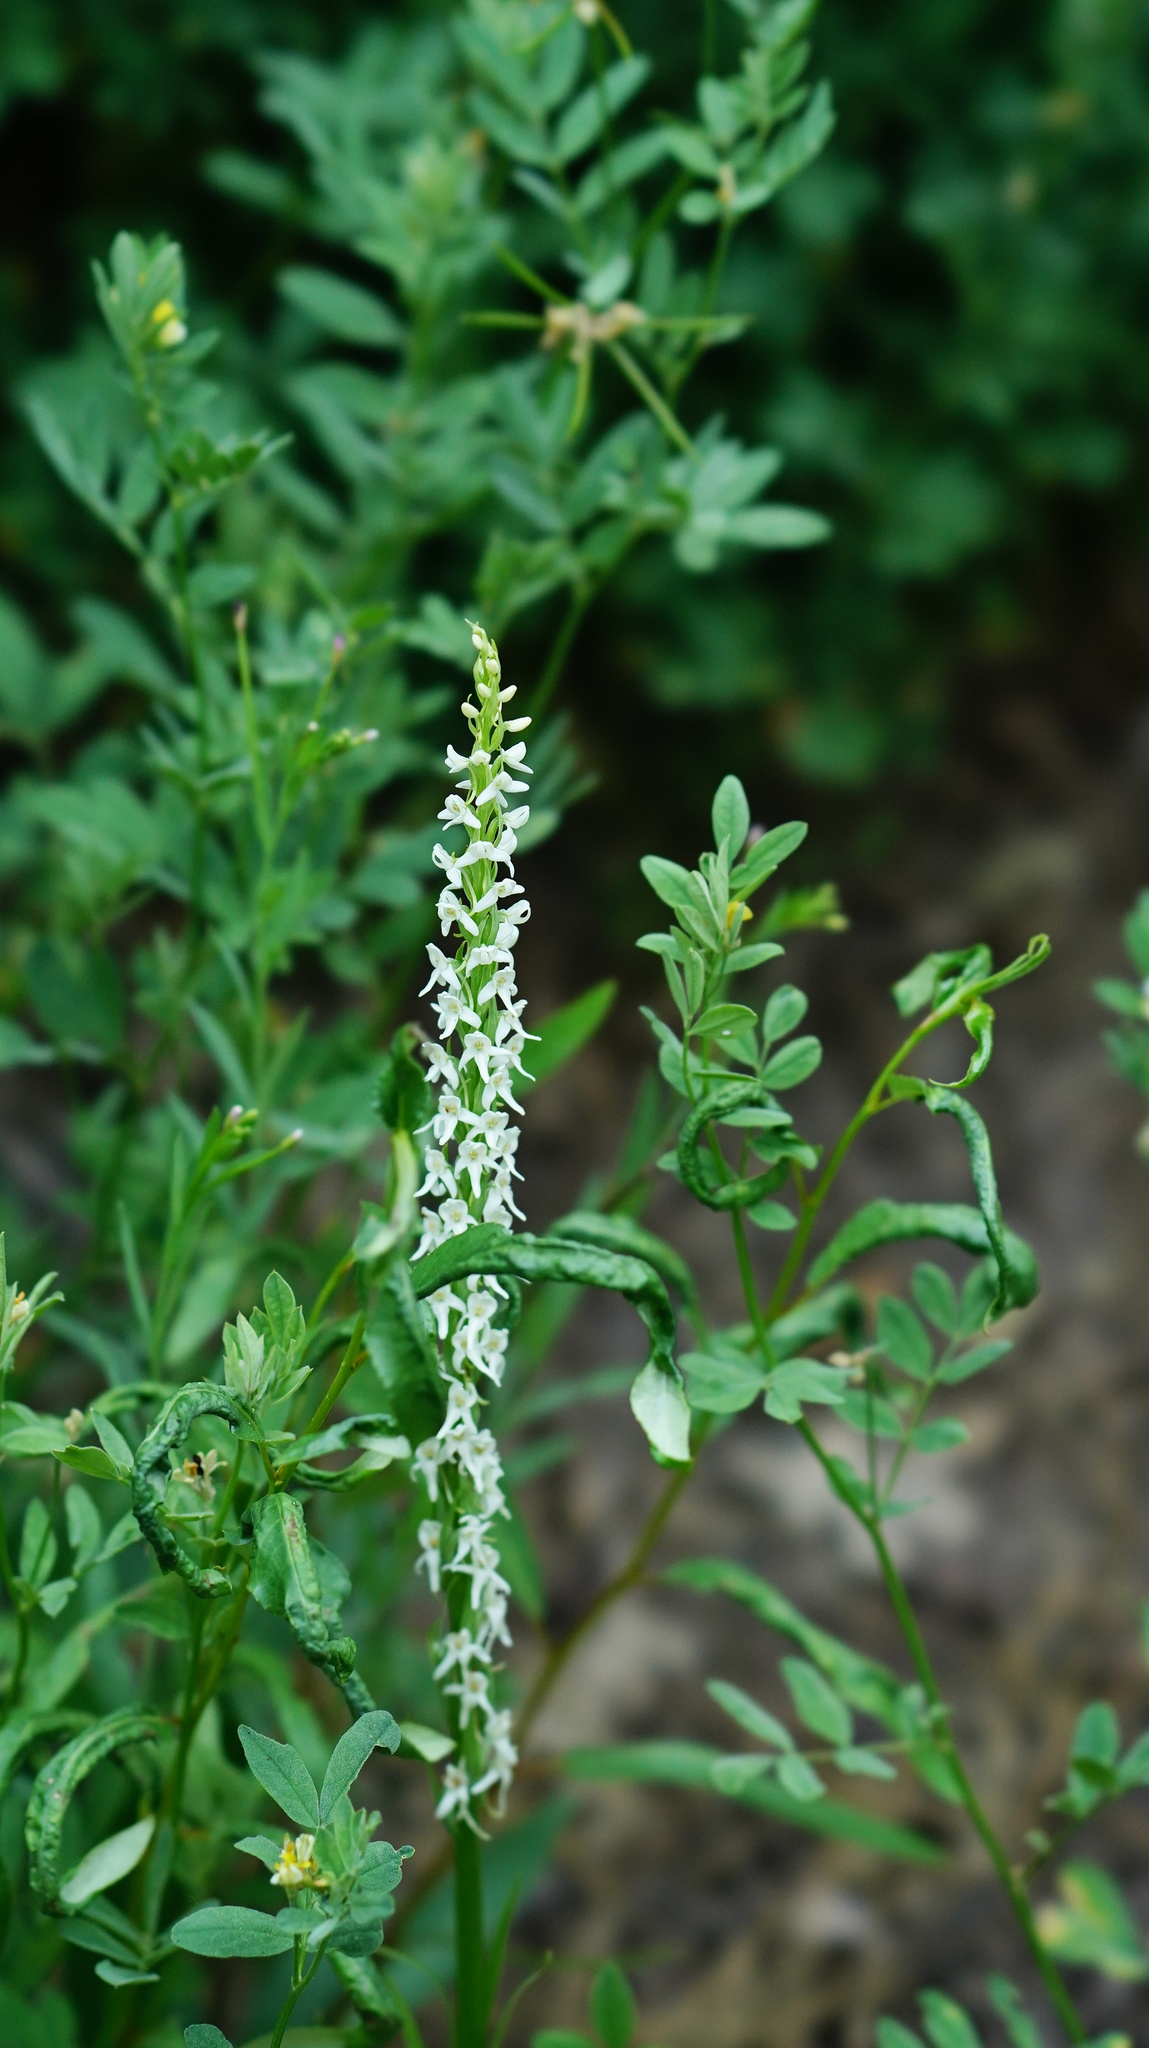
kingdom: Plantae
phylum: Tracheophyta
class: Liliopsida
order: Asparagales
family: Orchidaceae
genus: Platanthera
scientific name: Platanthera dilatata
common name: Bog candles
